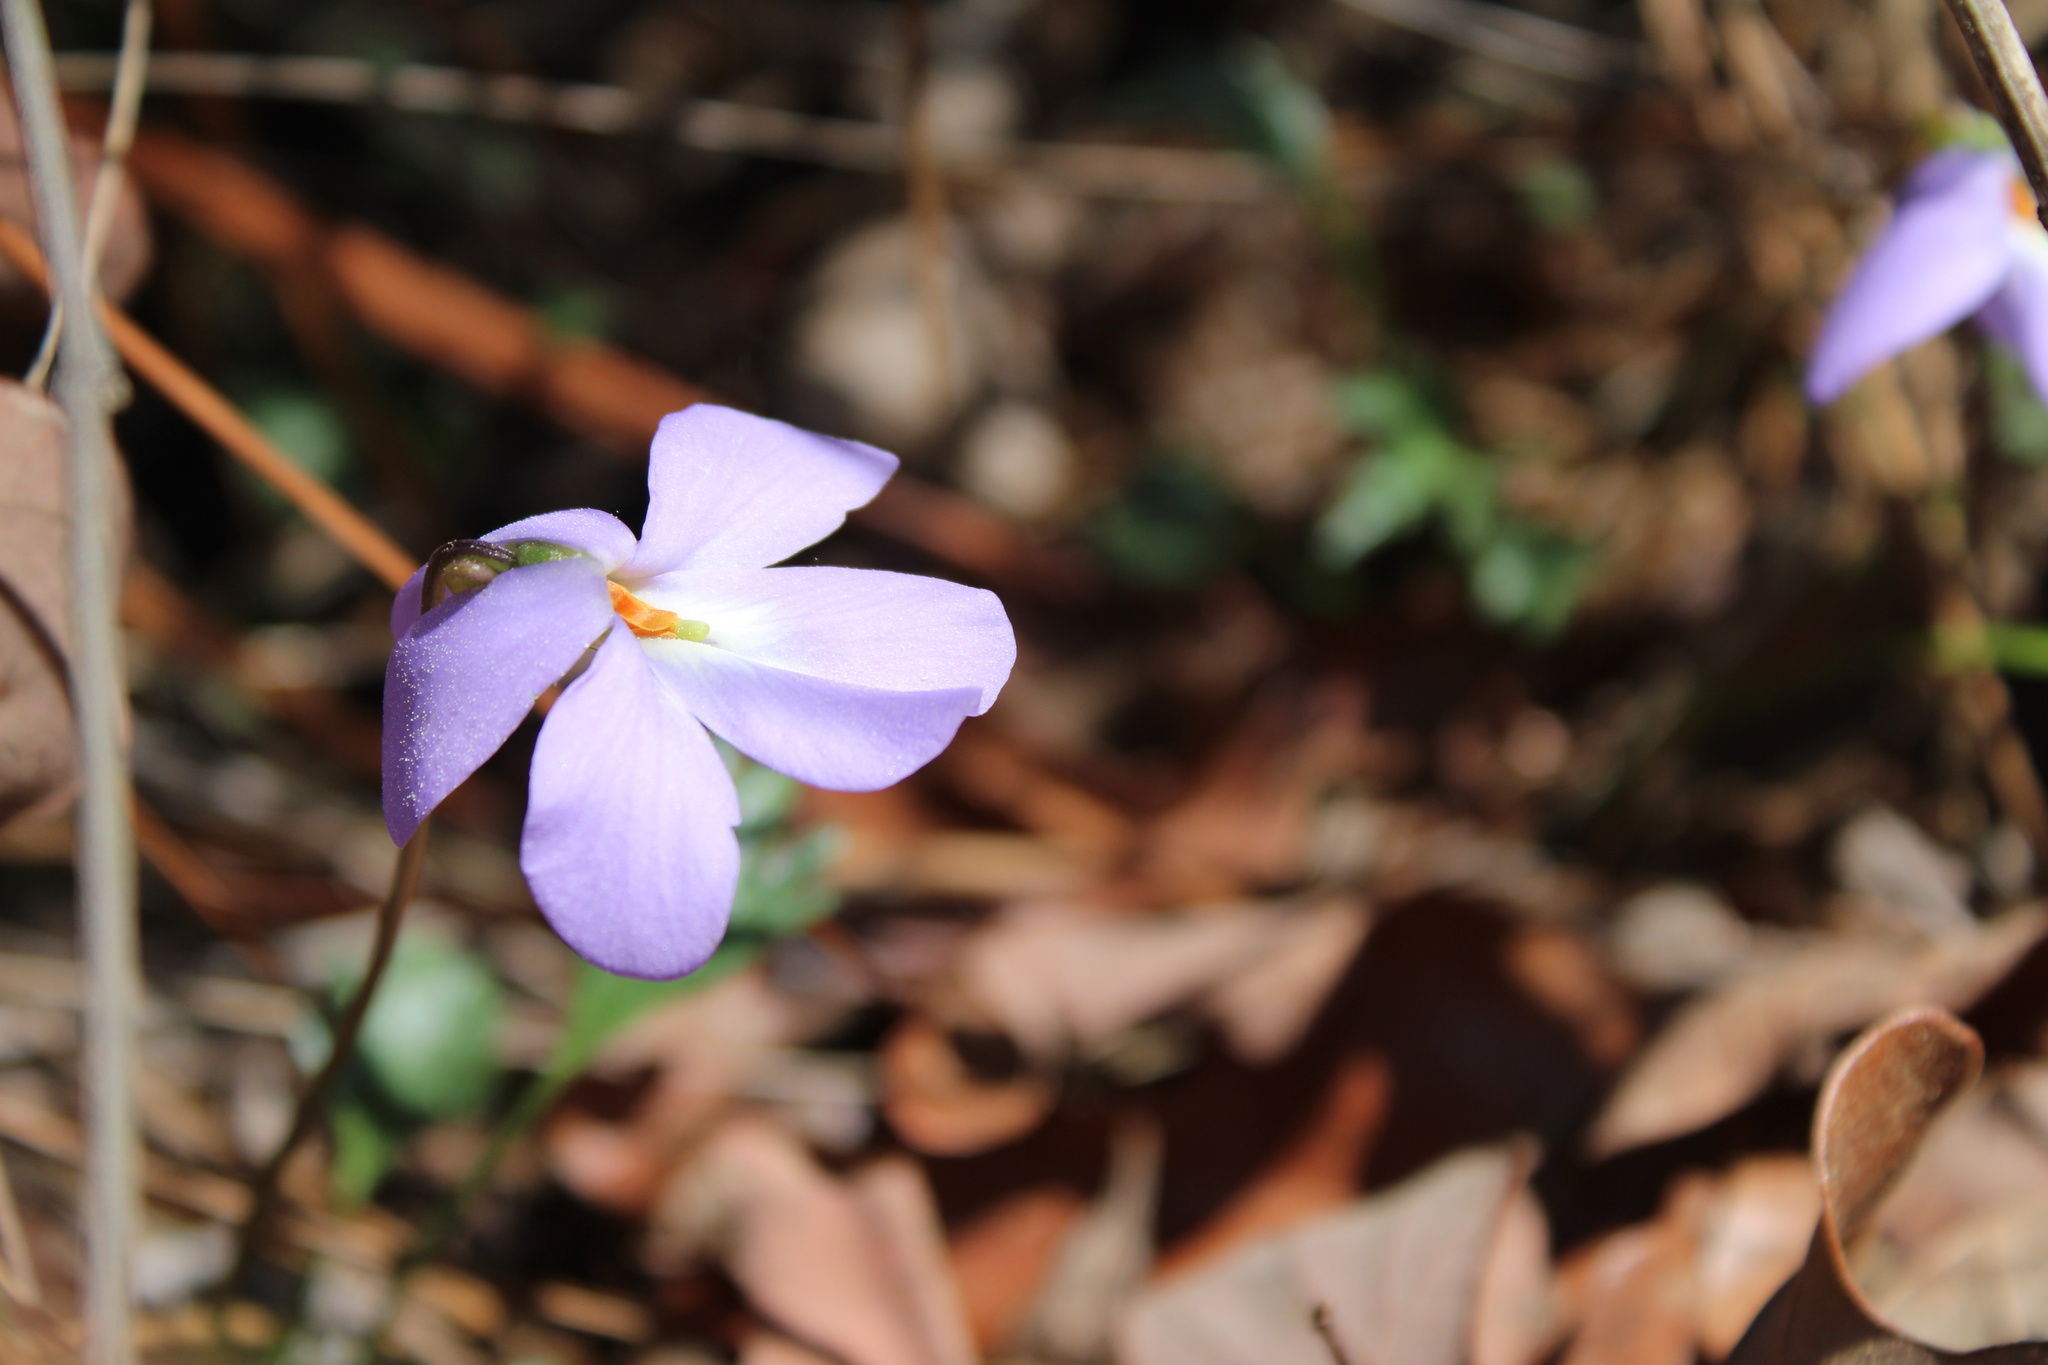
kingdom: Plantae
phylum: Tracheophyta
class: Magnoliopsida
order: Malpighiales
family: Violaceae
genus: Viola
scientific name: Viola pedata
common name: Pansy violet
